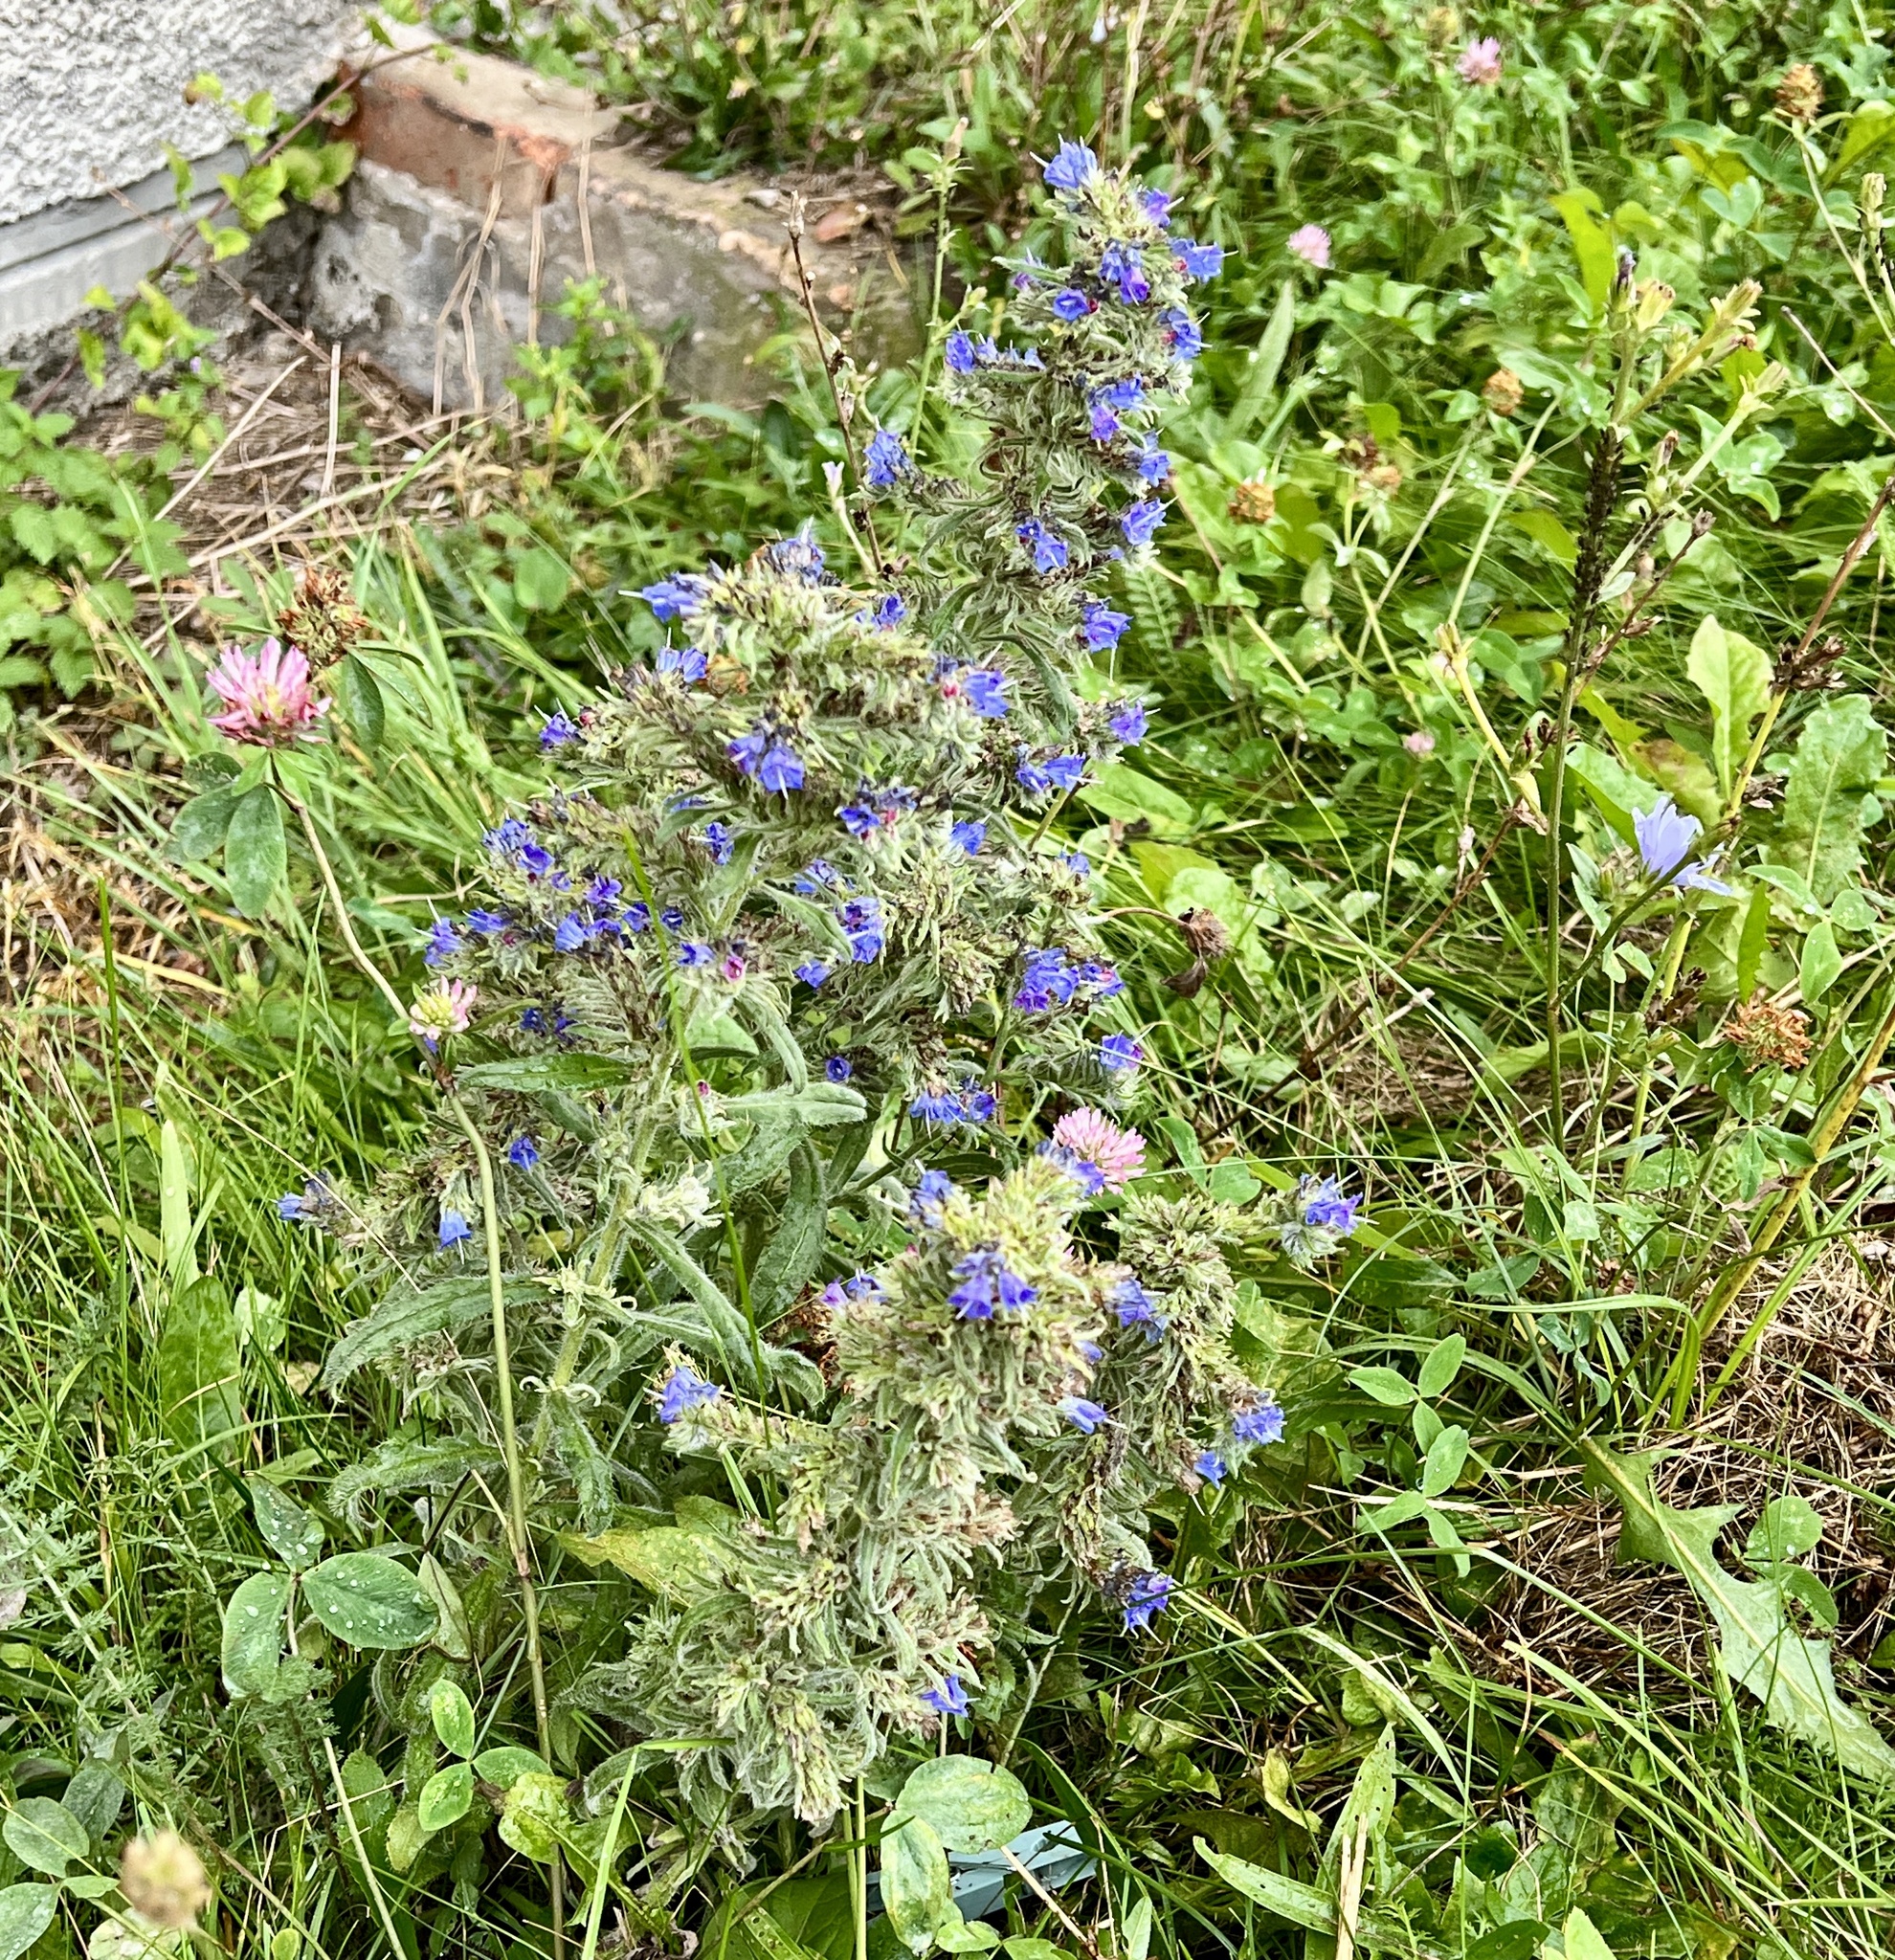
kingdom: Plantae
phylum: Tracheophyta
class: Magnoliopsida
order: Boraginales
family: Boraginaceae
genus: Echium
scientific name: Echium vulgare
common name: Common viper's bugloss
